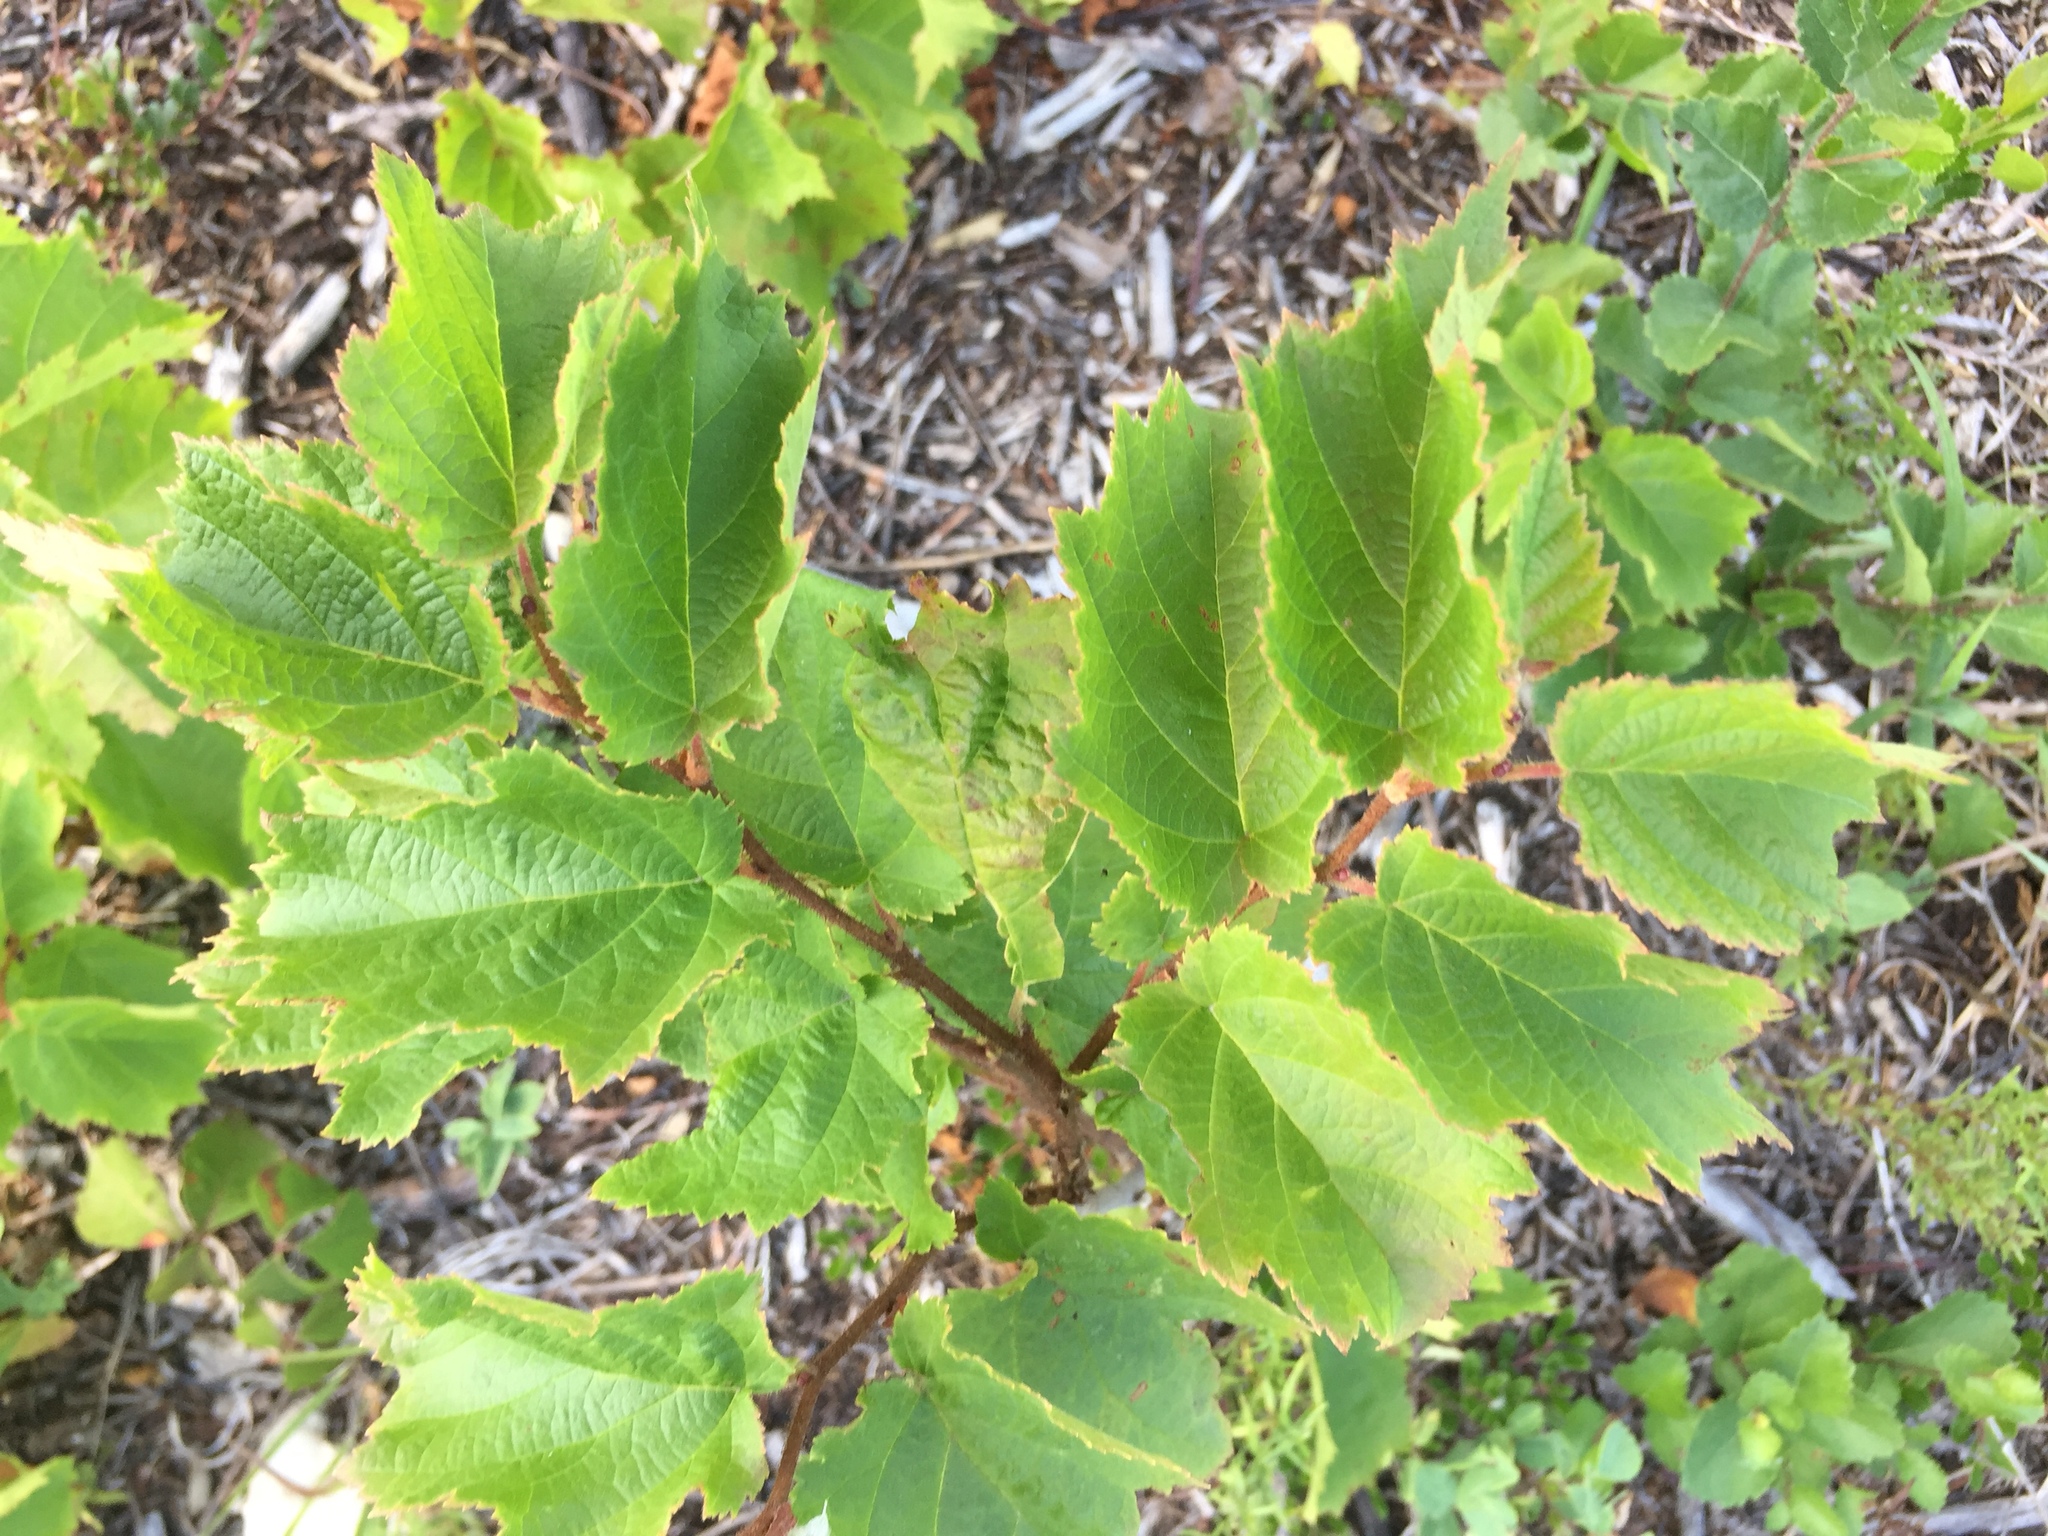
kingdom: Plantae
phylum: Tracheophyta
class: Magnoliopsida
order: Fagales
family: Betulaceae
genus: Corylus
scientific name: Corylus americana
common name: American hazel
